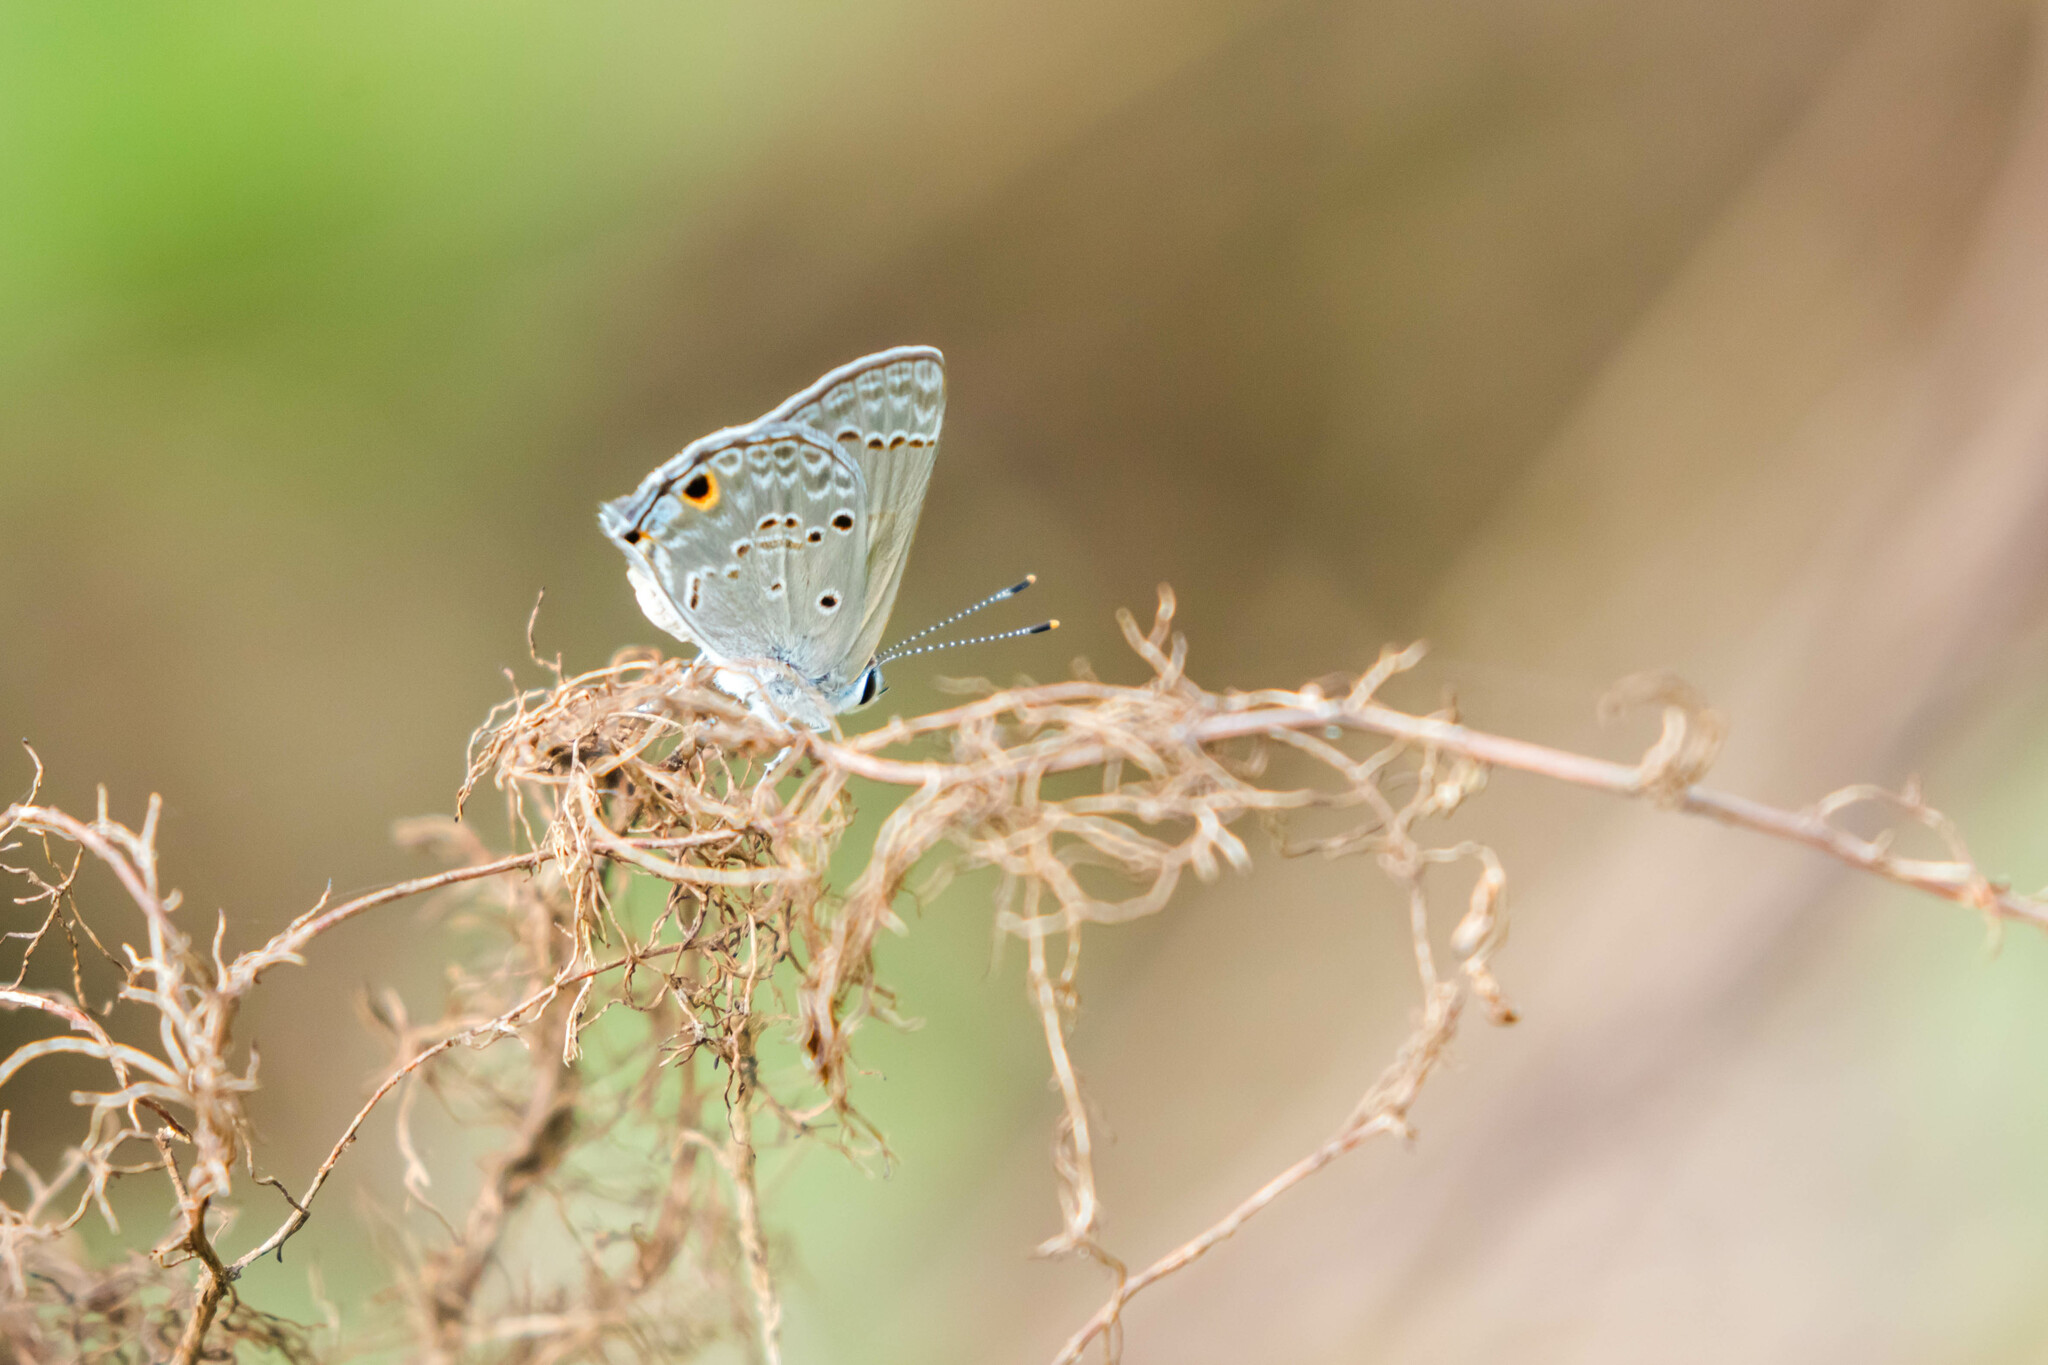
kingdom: Animalia
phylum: Arthropoda
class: Insecta
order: Lepidoptera
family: Lycaenidae
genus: Strymon
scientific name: Strymon bubastus
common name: Bubastes hairstreak
